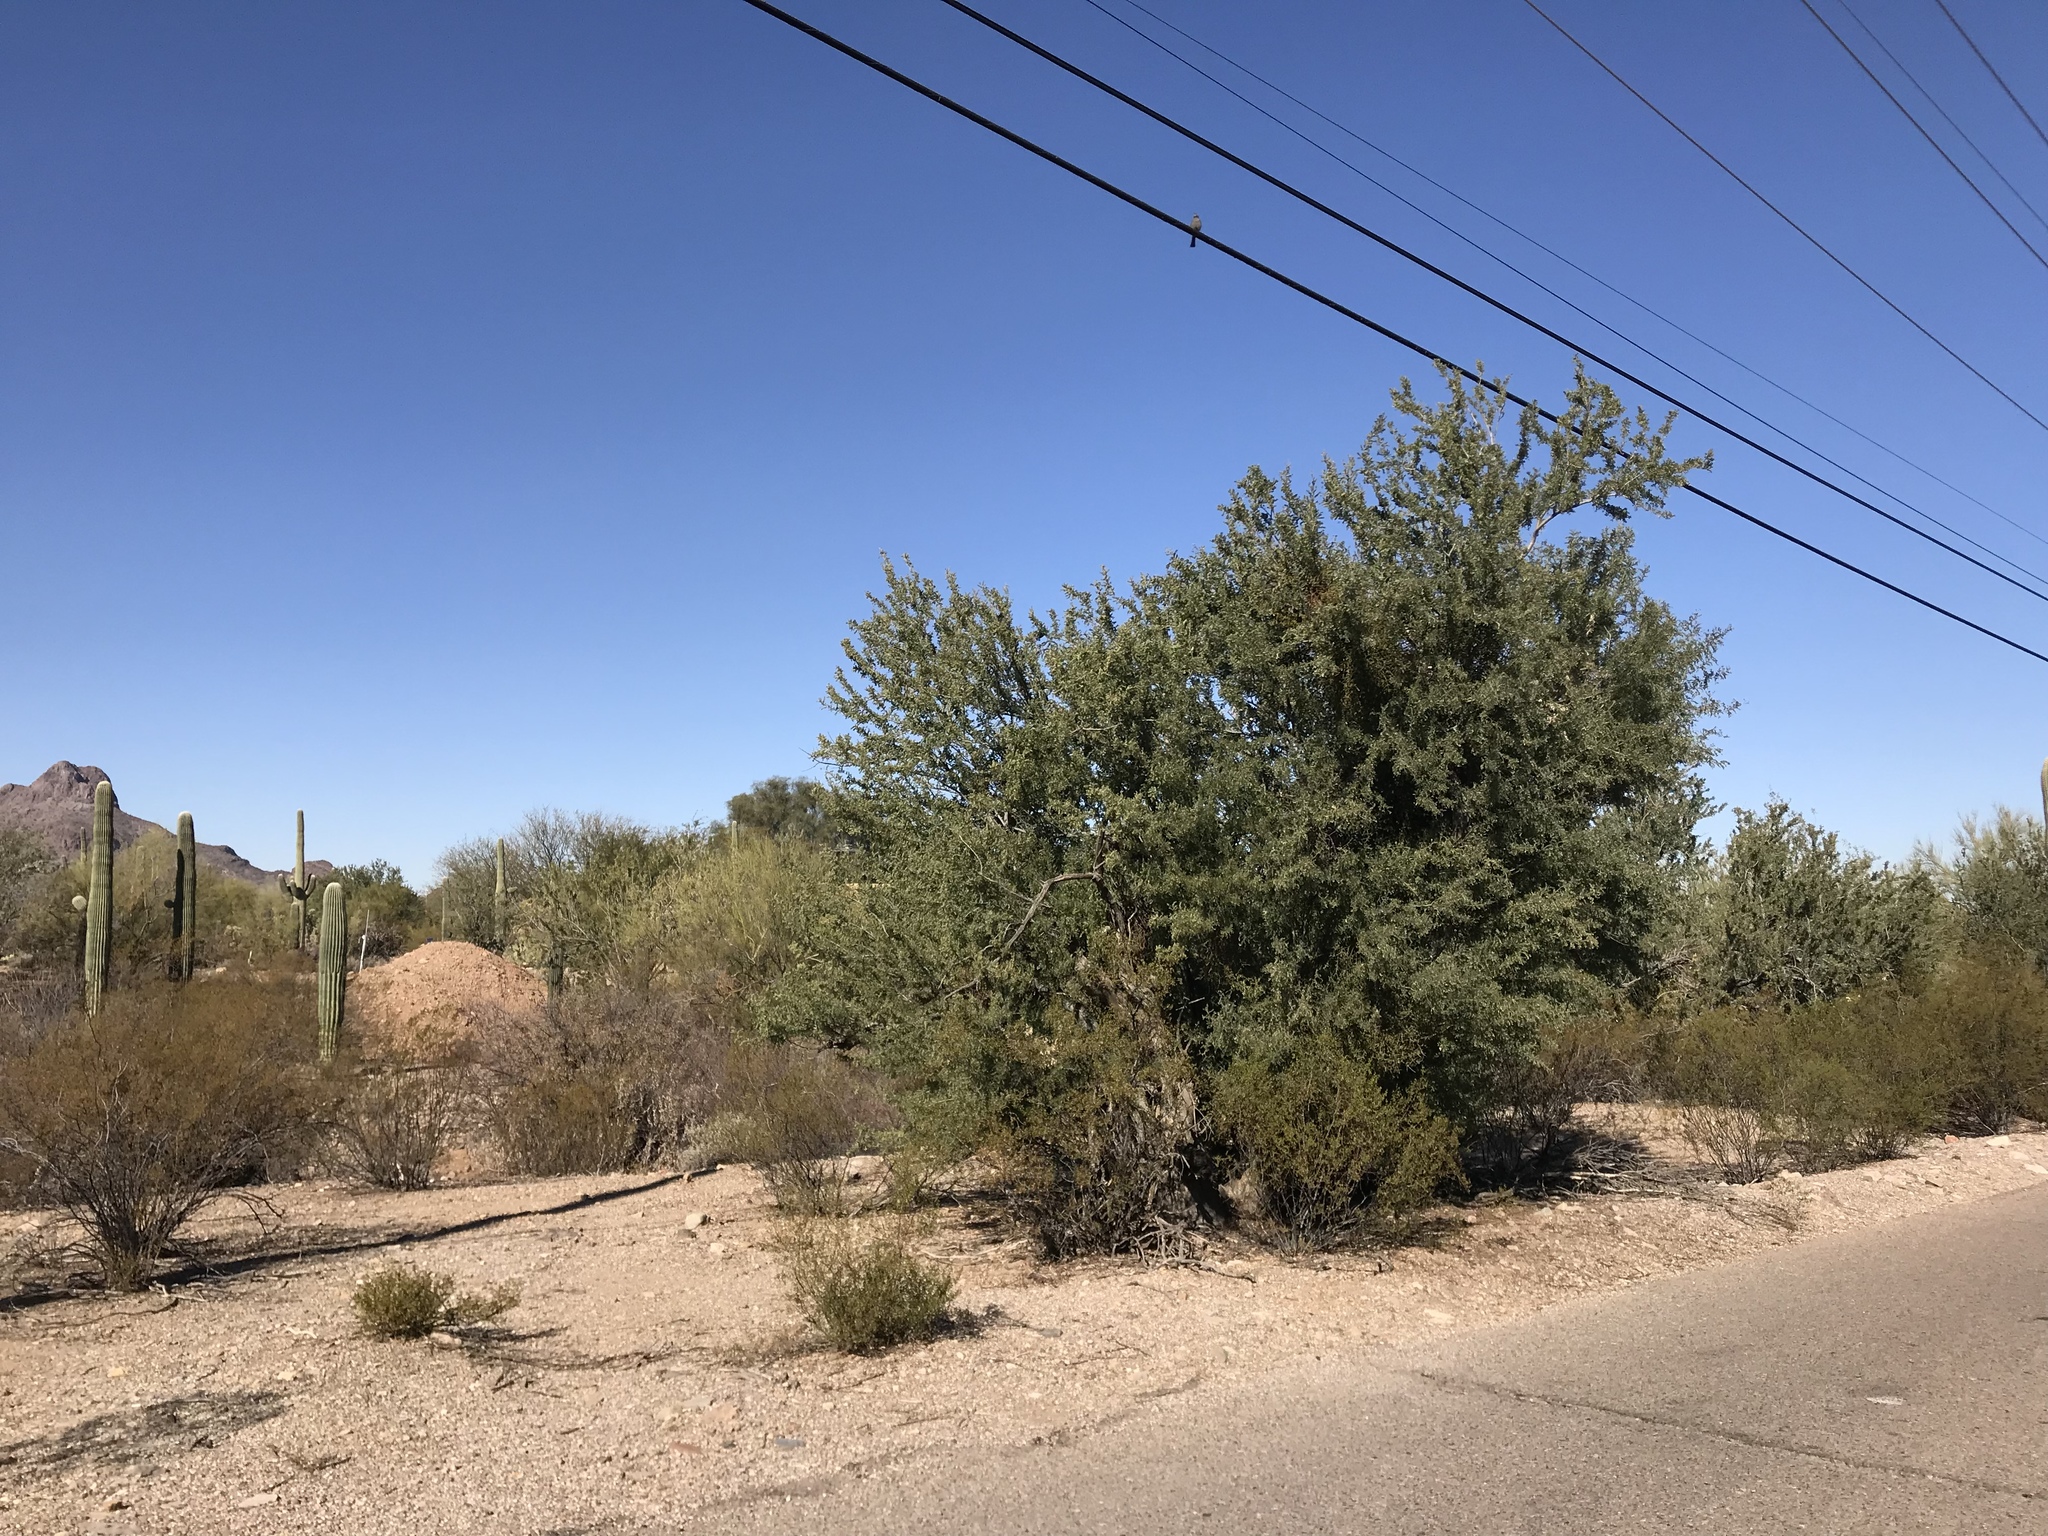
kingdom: Plantae
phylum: Tracheophyta
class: Magnoliopsida
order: Fabales
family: Fabaceae
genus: Olneya
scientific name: Olneya tesota
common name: Desert ironwood
